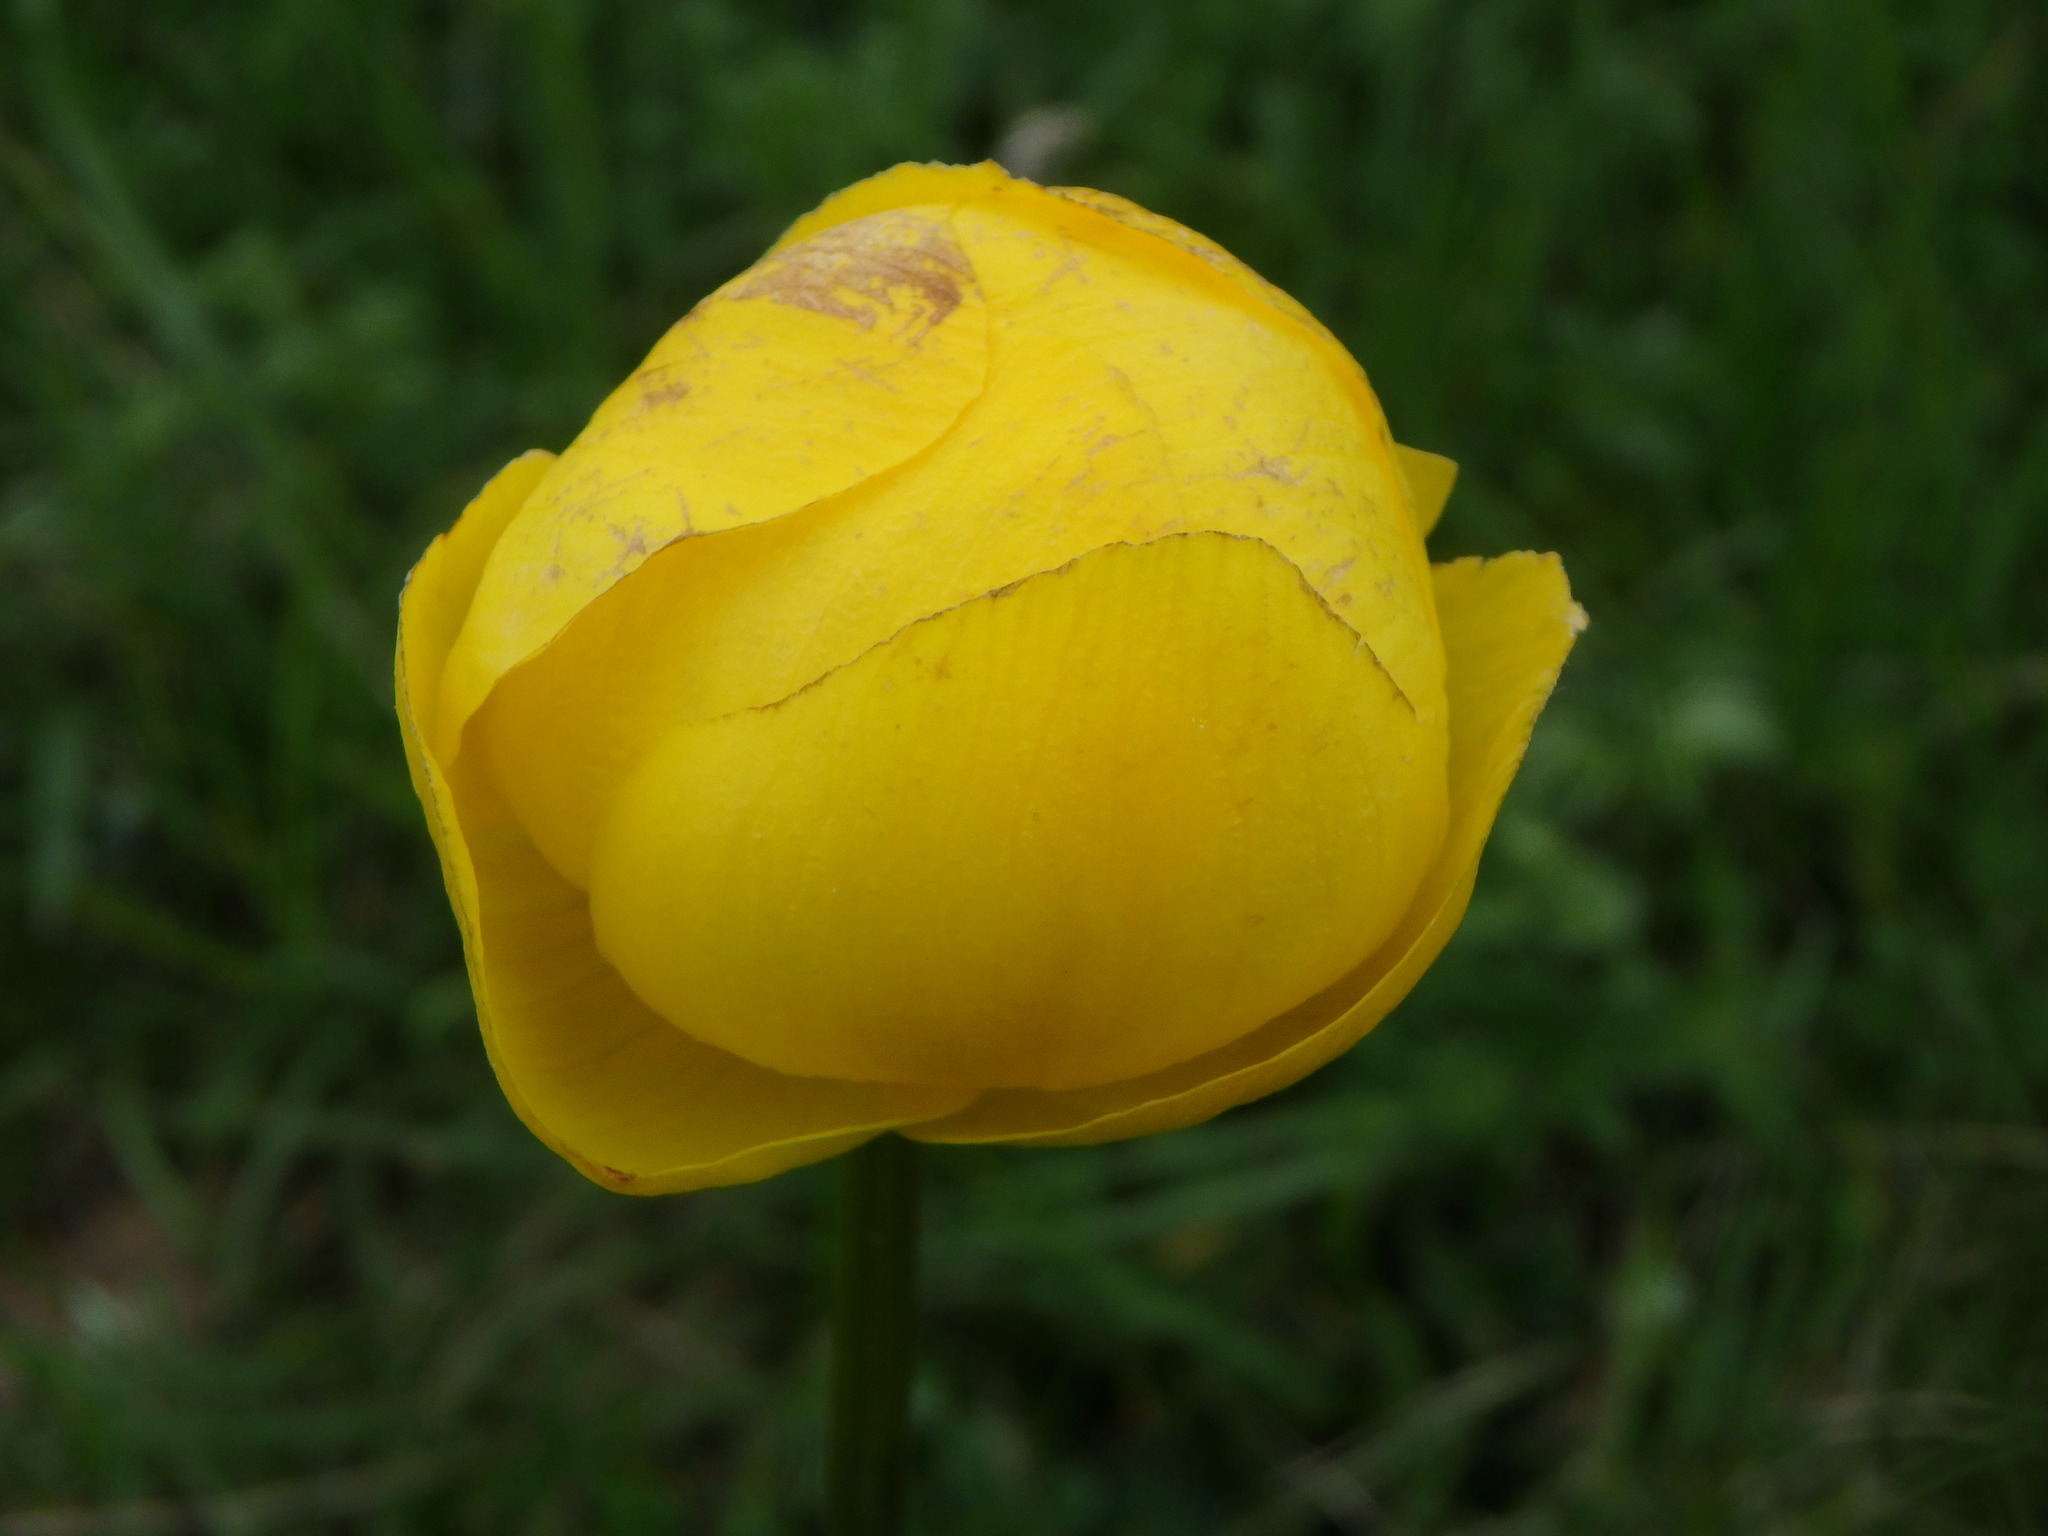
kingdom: Plantae
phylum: Tracheophyta
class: Magnoliopsida
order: Ranunculales
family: Ranunculaceae
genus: Trollius
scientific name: Trollius europaeus
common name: European globeflower
